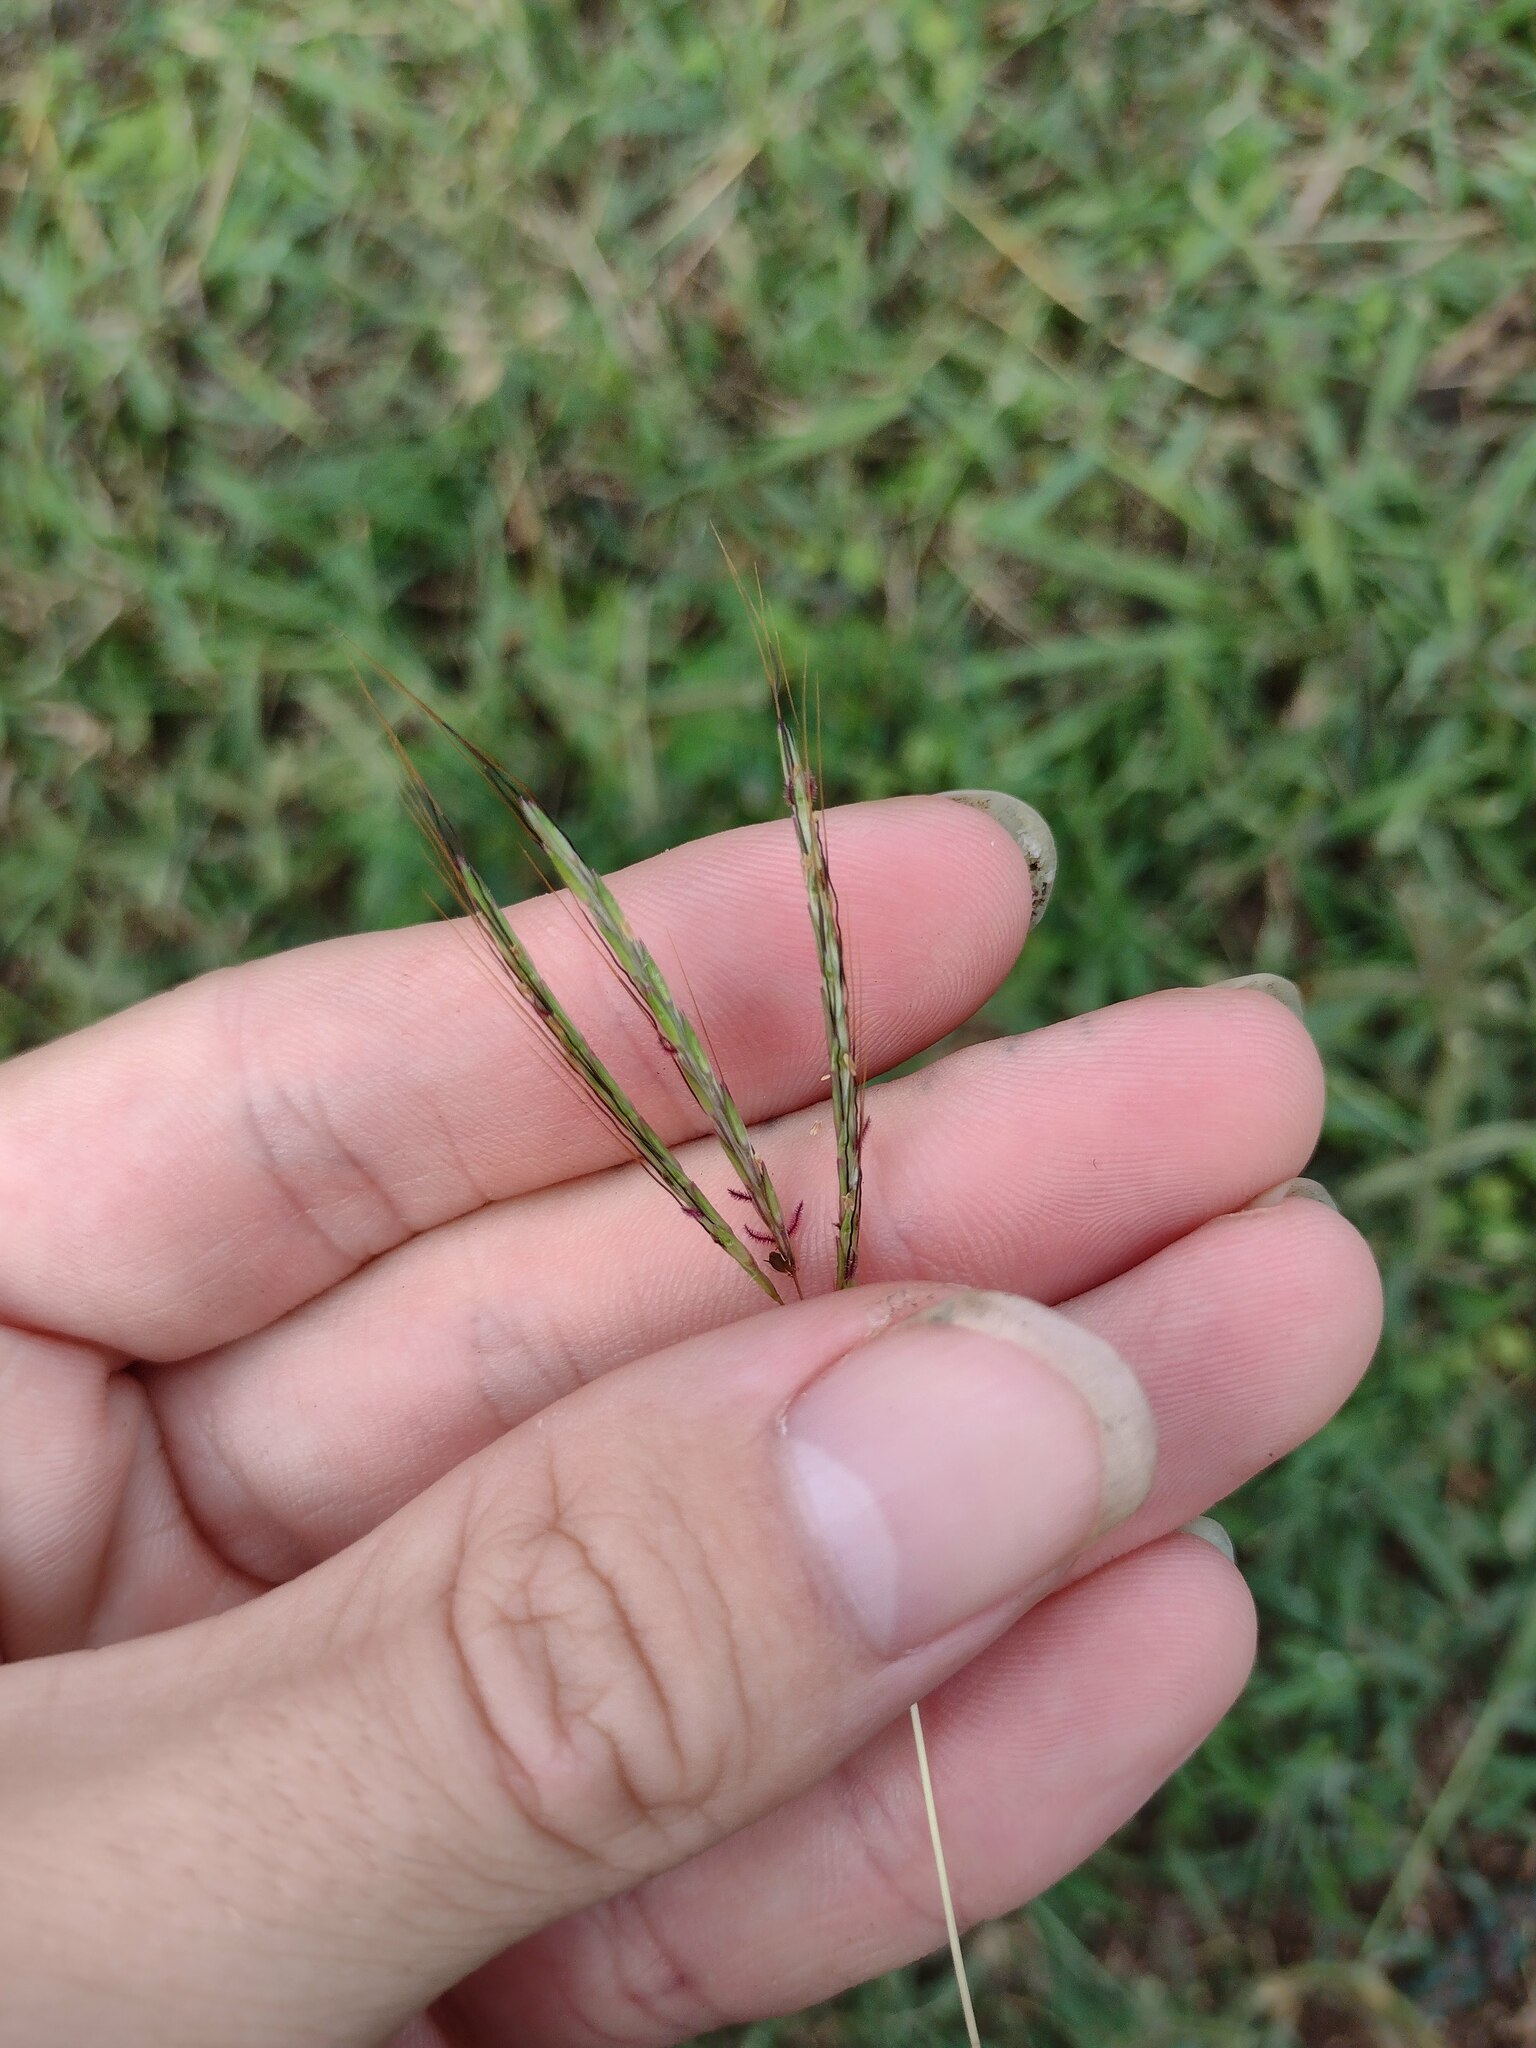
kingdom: Plantae
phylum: Tracheophyta
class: Liliopsida
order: Poales
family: Poaceae
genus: Bothriochloa
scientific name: Bothriochloa pertusa
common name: Pitted beardgrass
